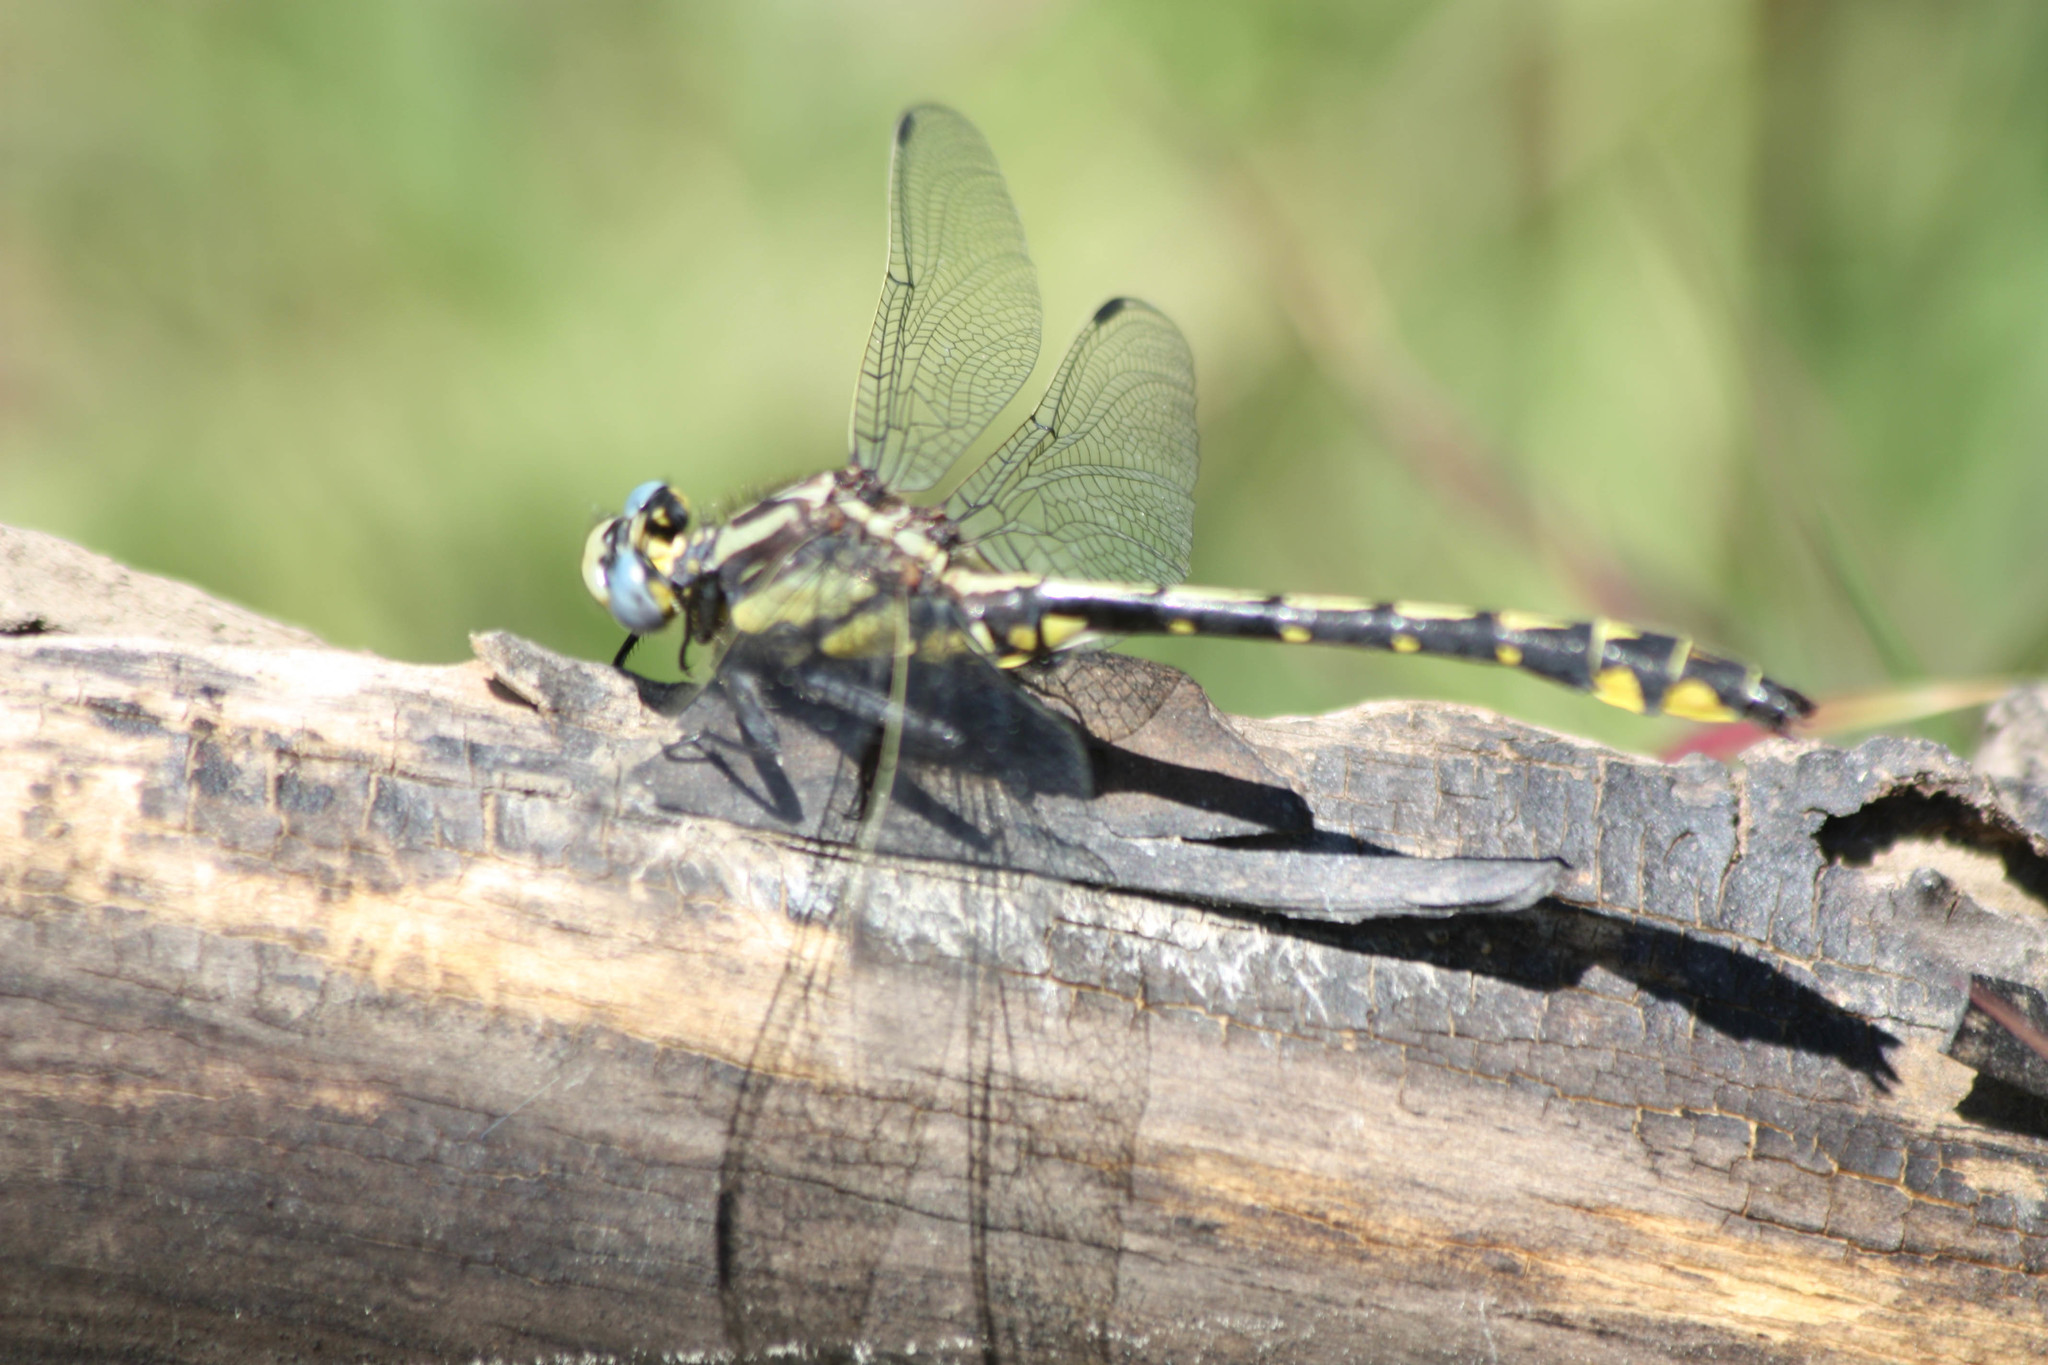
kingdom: Animalia
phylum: Arthropoda
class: Insecta
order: Odonata
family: Gomphidae
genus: Phanogomphus
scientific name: Phanogomphus kurilis
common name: Pacific clubtail
